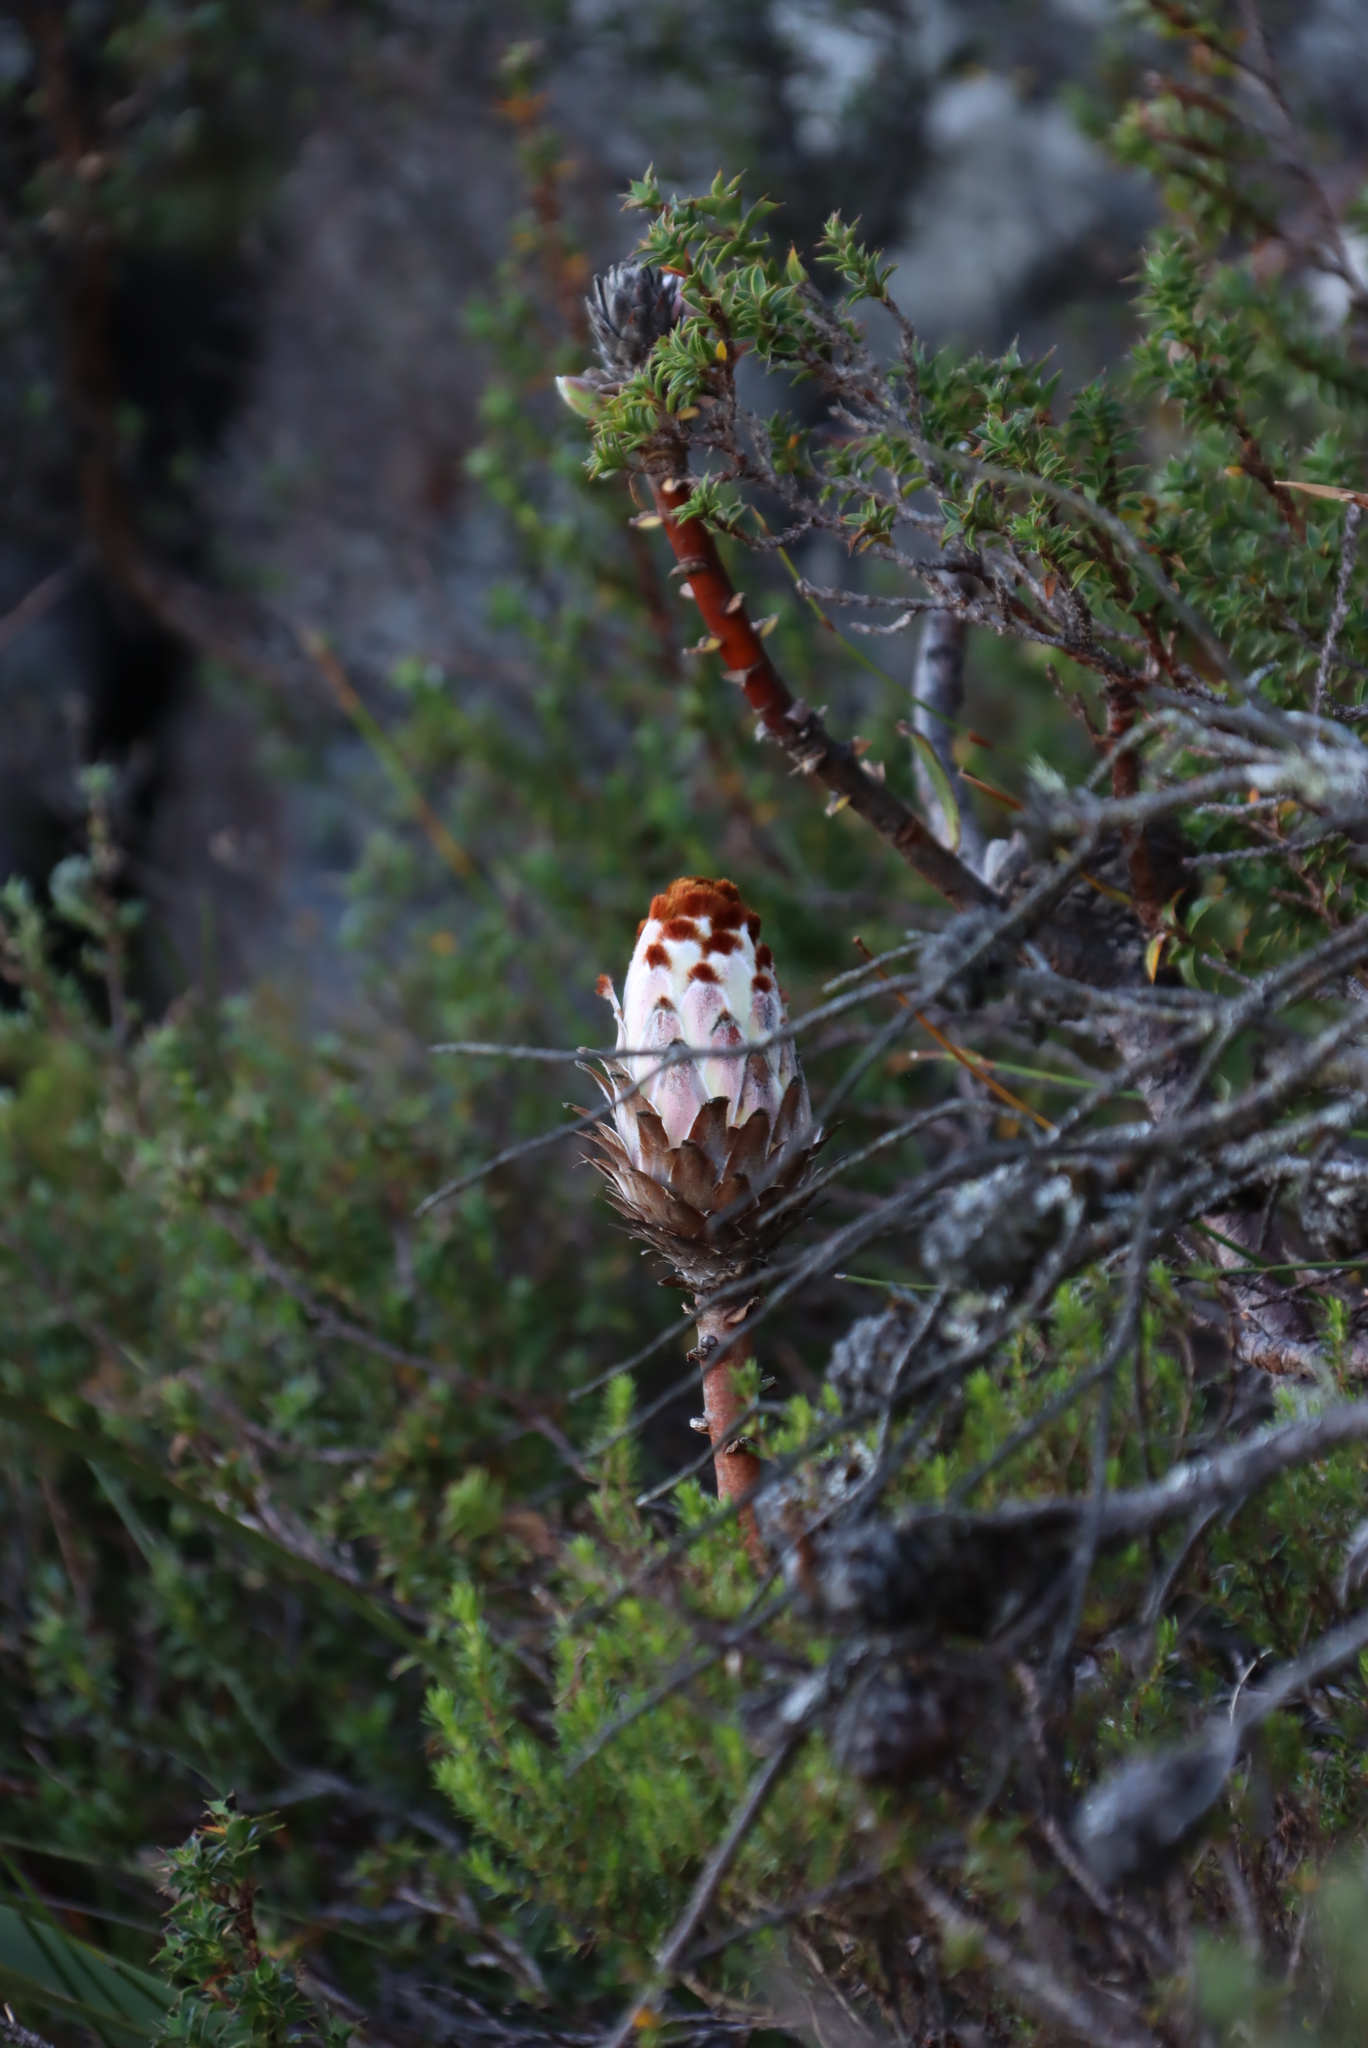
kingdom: Plantae
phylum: Tracheophyta
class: Magnoliopsida
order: Proteales
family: Proteaceae
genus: Protea
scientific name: Protea speciosa
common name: Brown-beard sugarbush
